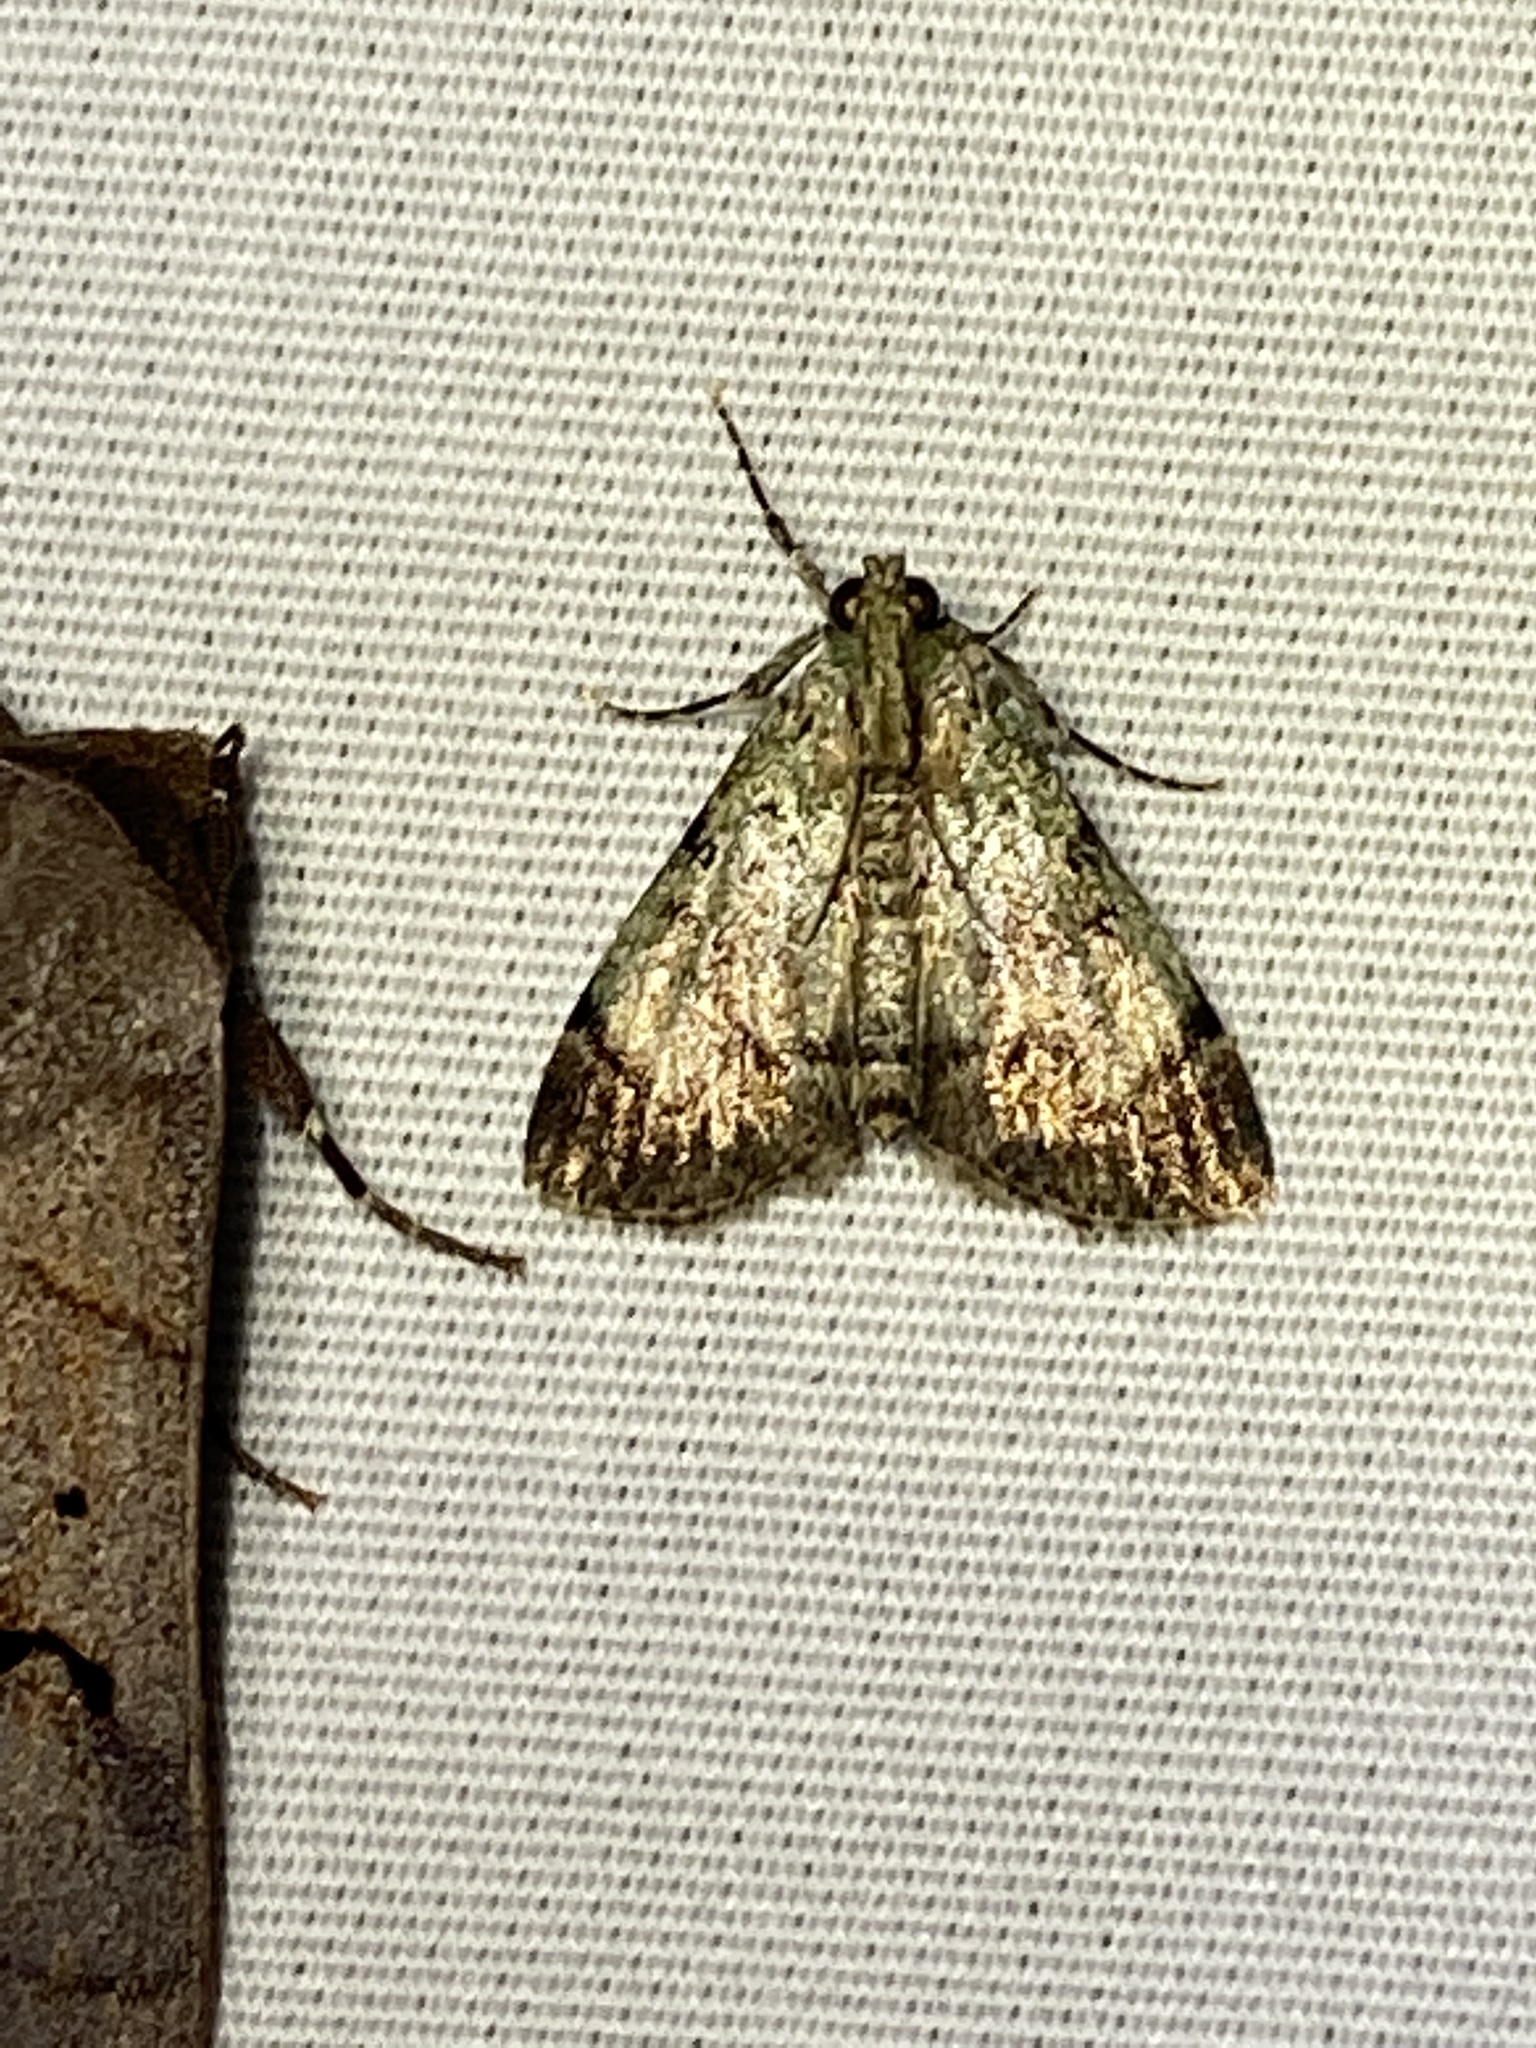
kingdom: Animalia
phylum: Arthropoda
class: Insecta
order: Lepidoptera
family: Pyralidae
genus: Epipaschia
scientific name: Epipaschia superatalis
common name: Dimorphic macalla moth
